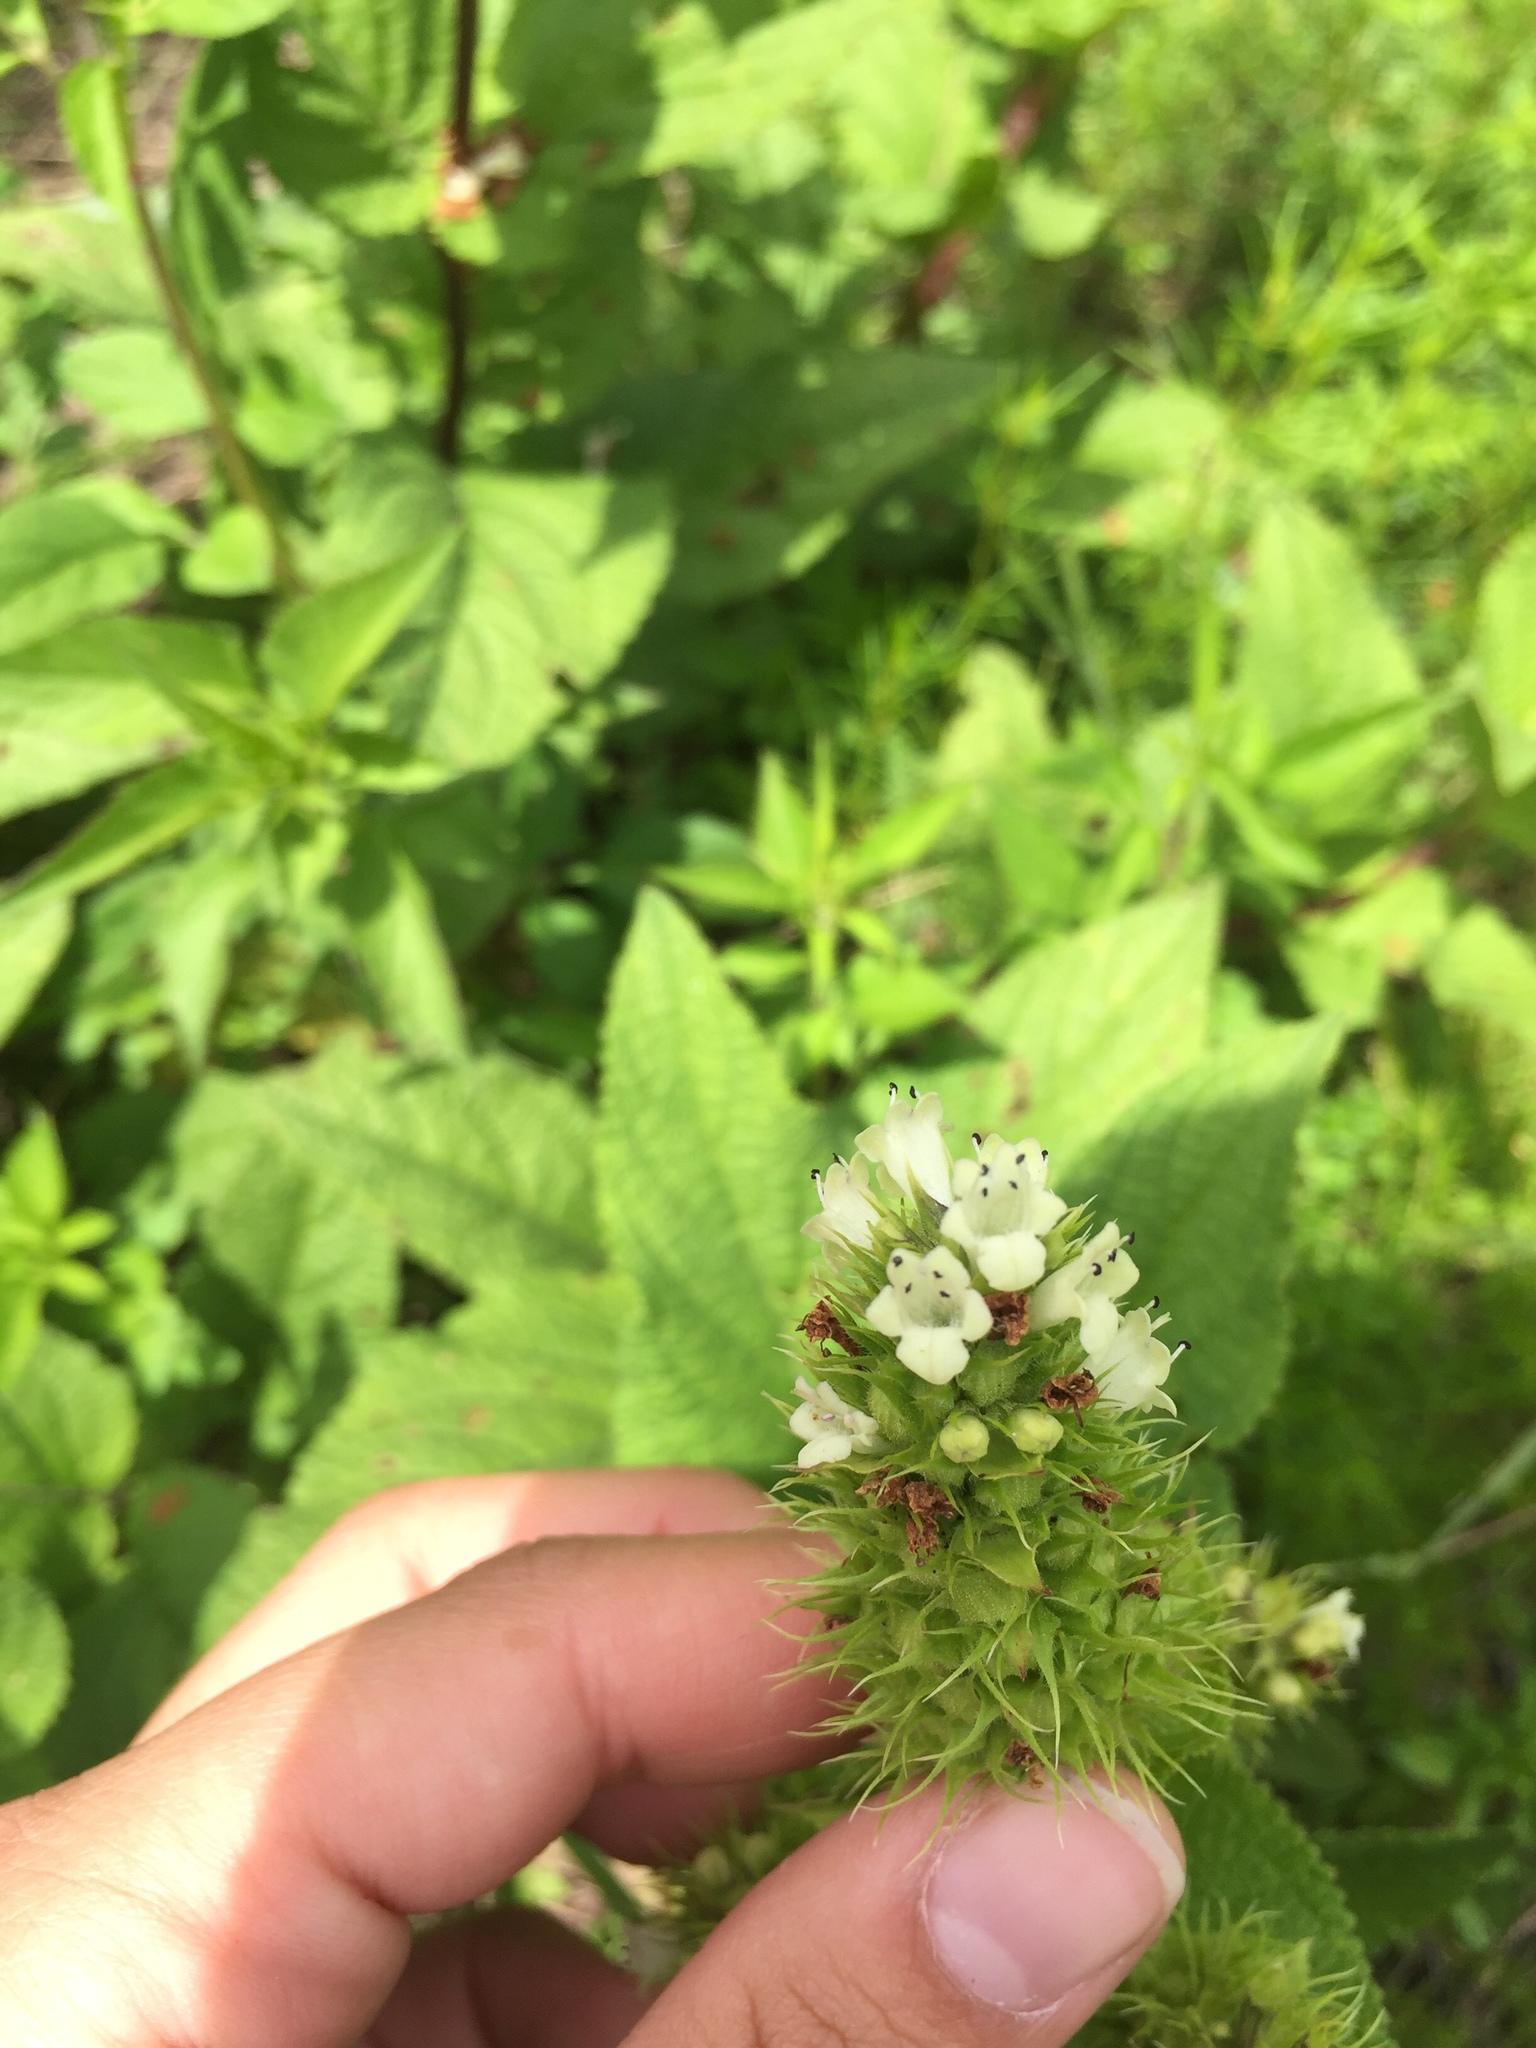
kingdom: Plantae
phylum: Tracheophyta
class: Magnoliopsida
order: Lamiales
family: Lamiaceae
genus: Lepechinia
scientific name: Lepechinia caulescens
